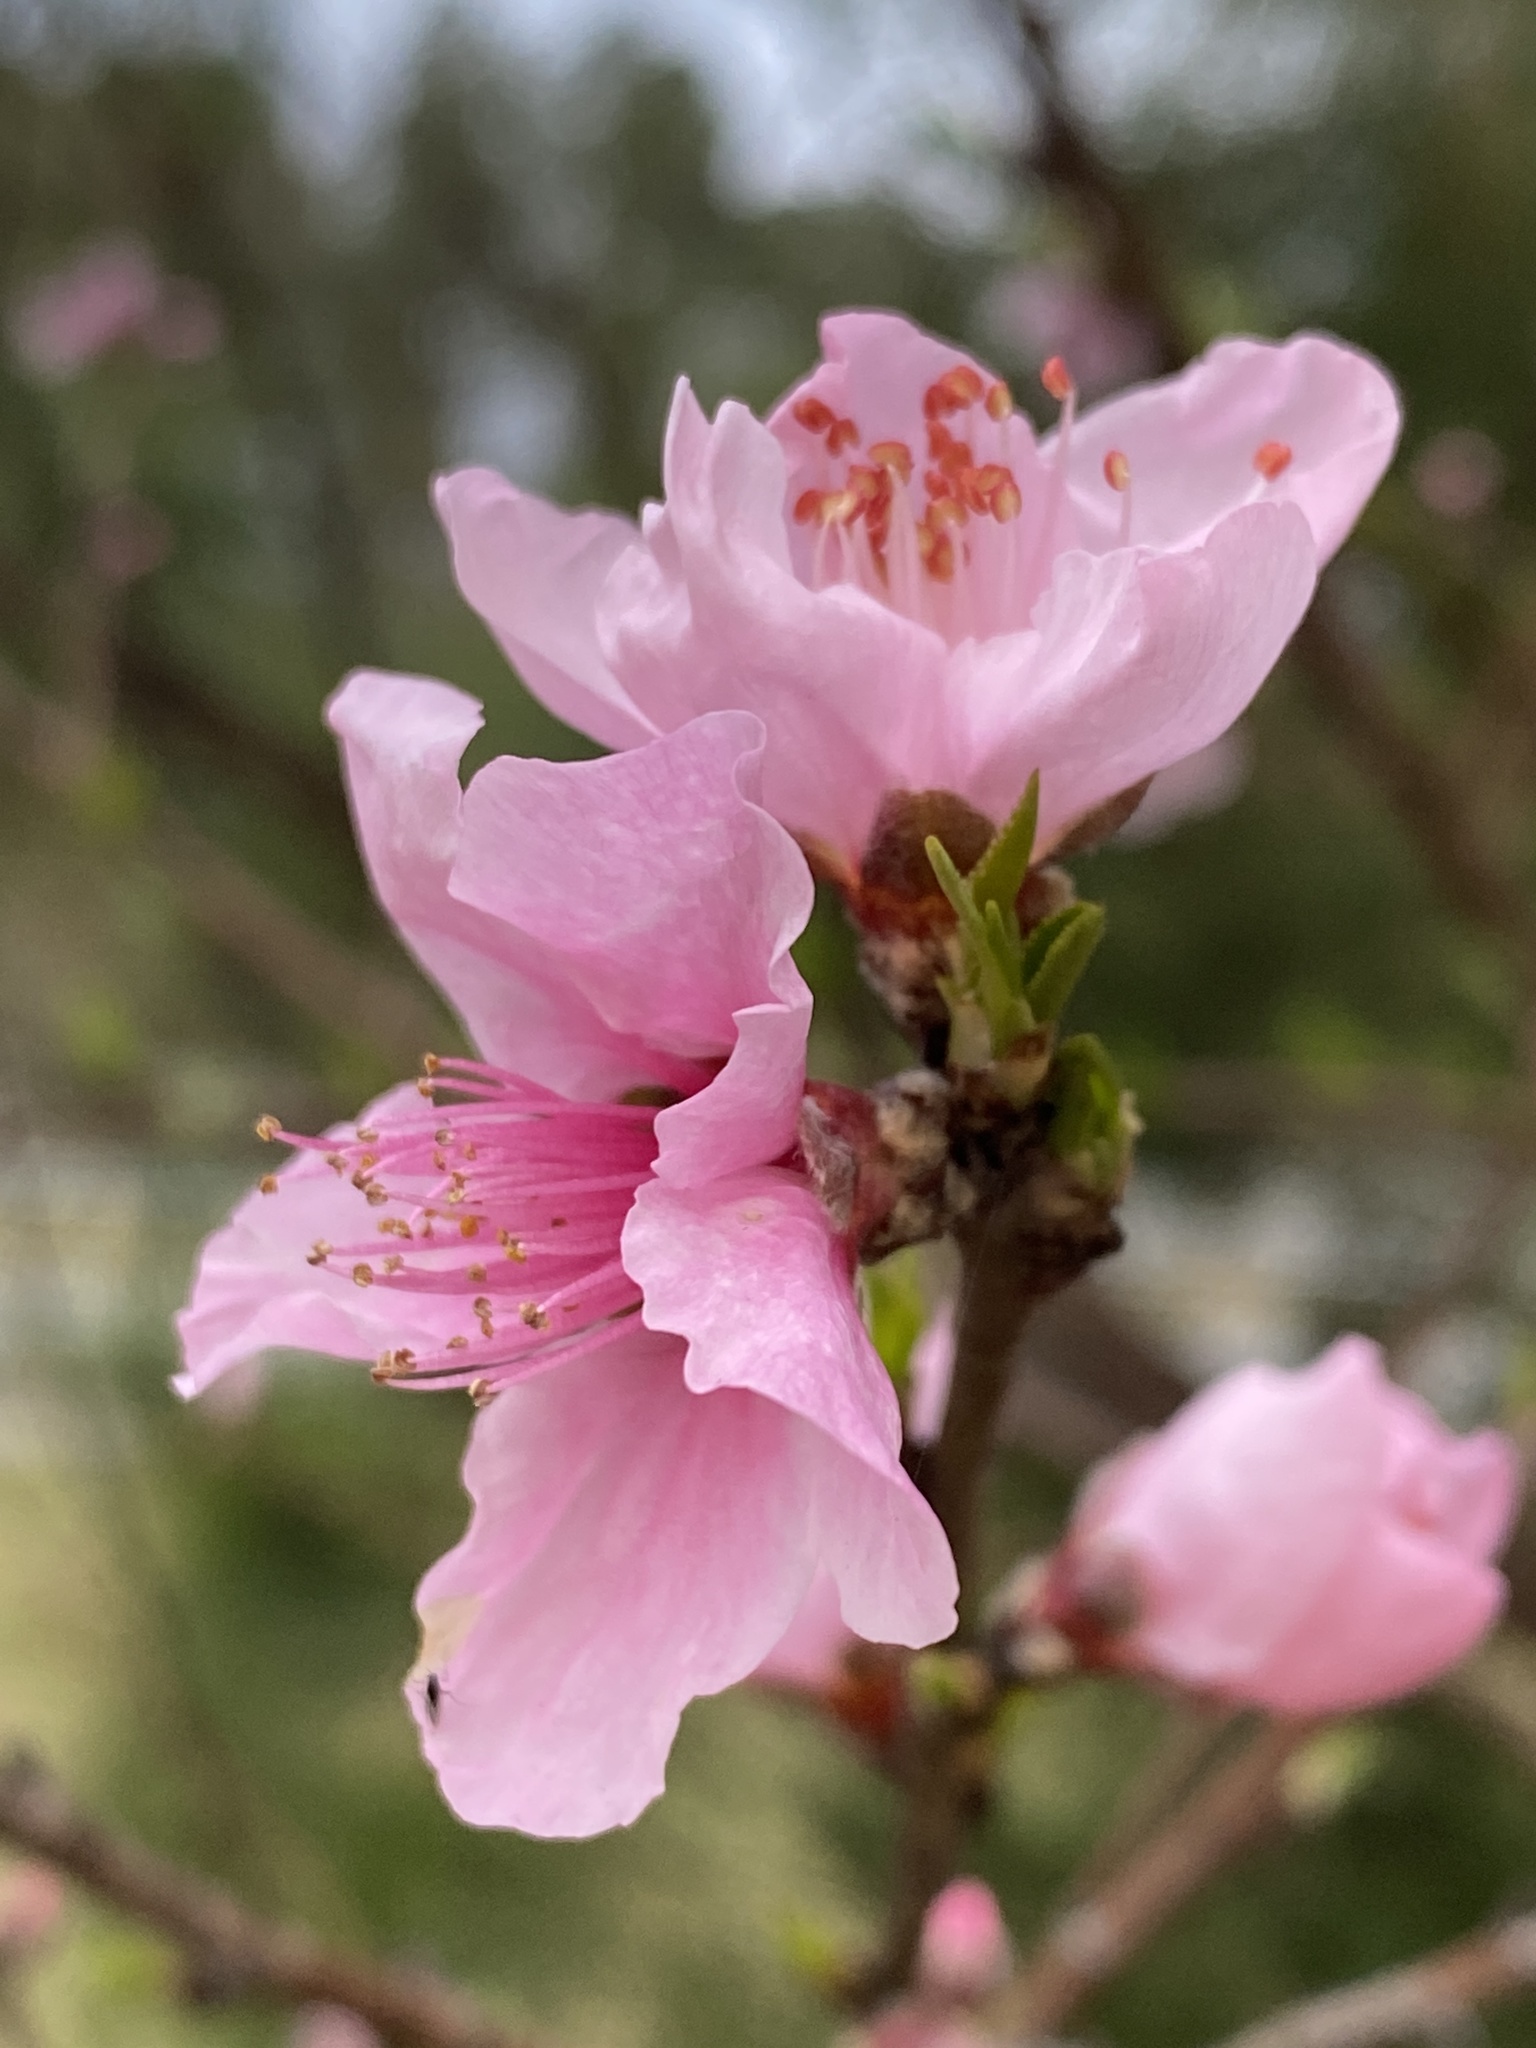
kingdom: Plantae
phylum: Tracheophyta
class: Magnoliopsida
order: Rosales
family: Rosaceae
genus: Prunus
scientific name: Prunus persica
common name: Peach
